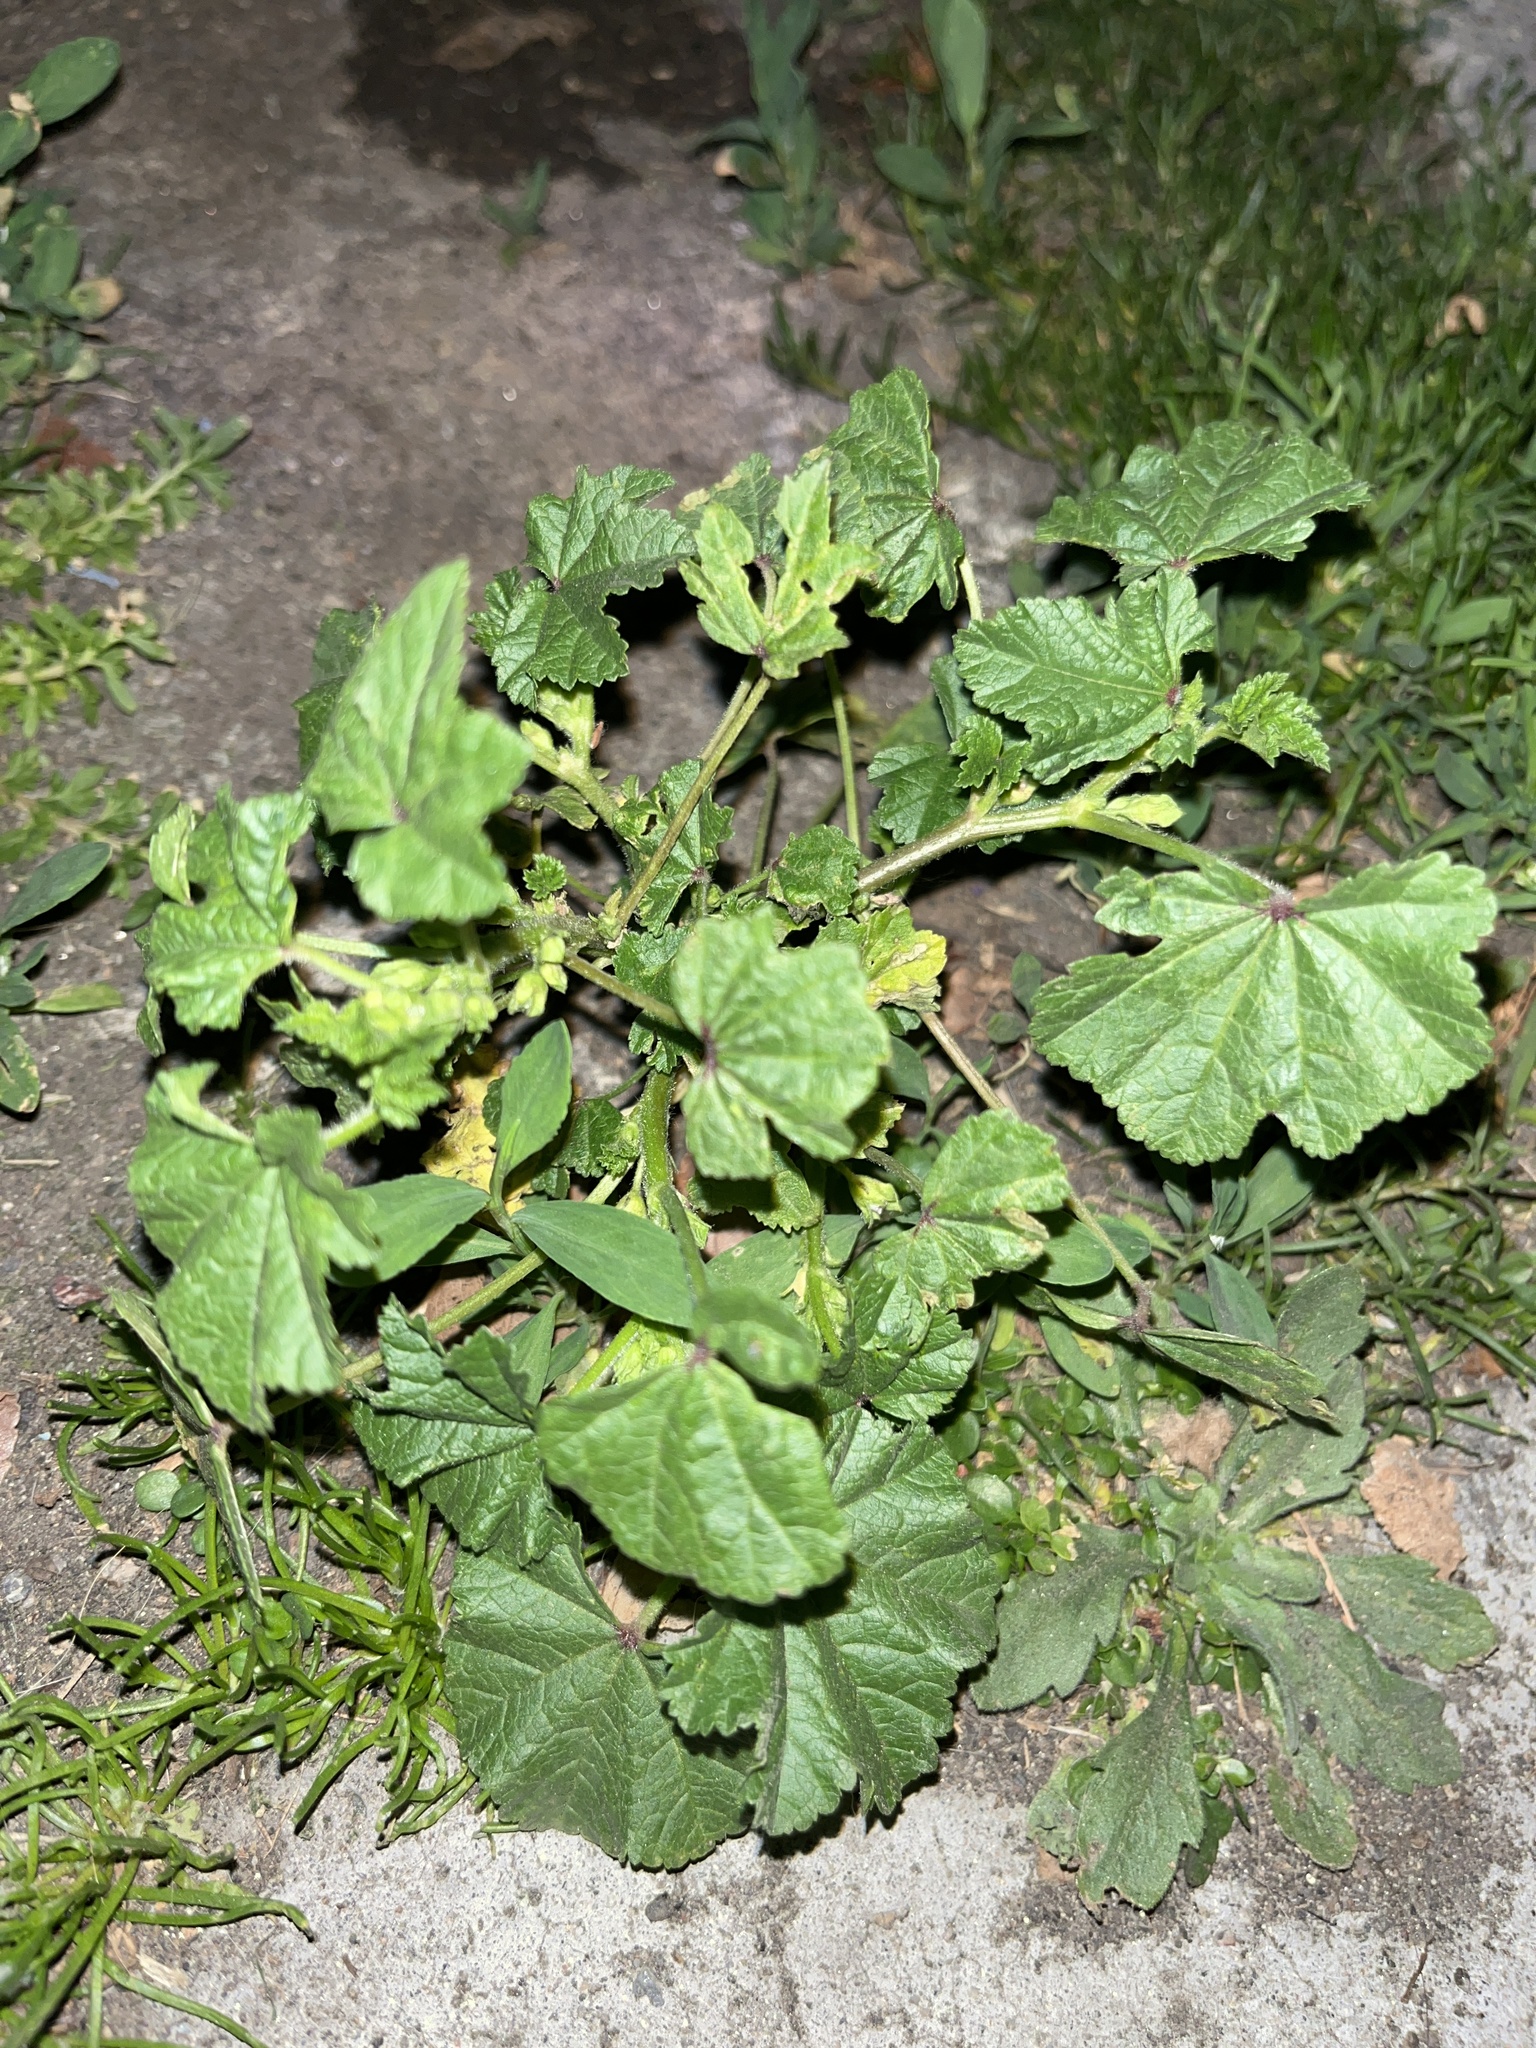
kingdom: Plantae
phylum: Tracheophyta
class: Magnoliopsida
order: Malvales
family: Malvaceae
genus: Malva
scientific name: Malva parviflora
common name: Least mallow
